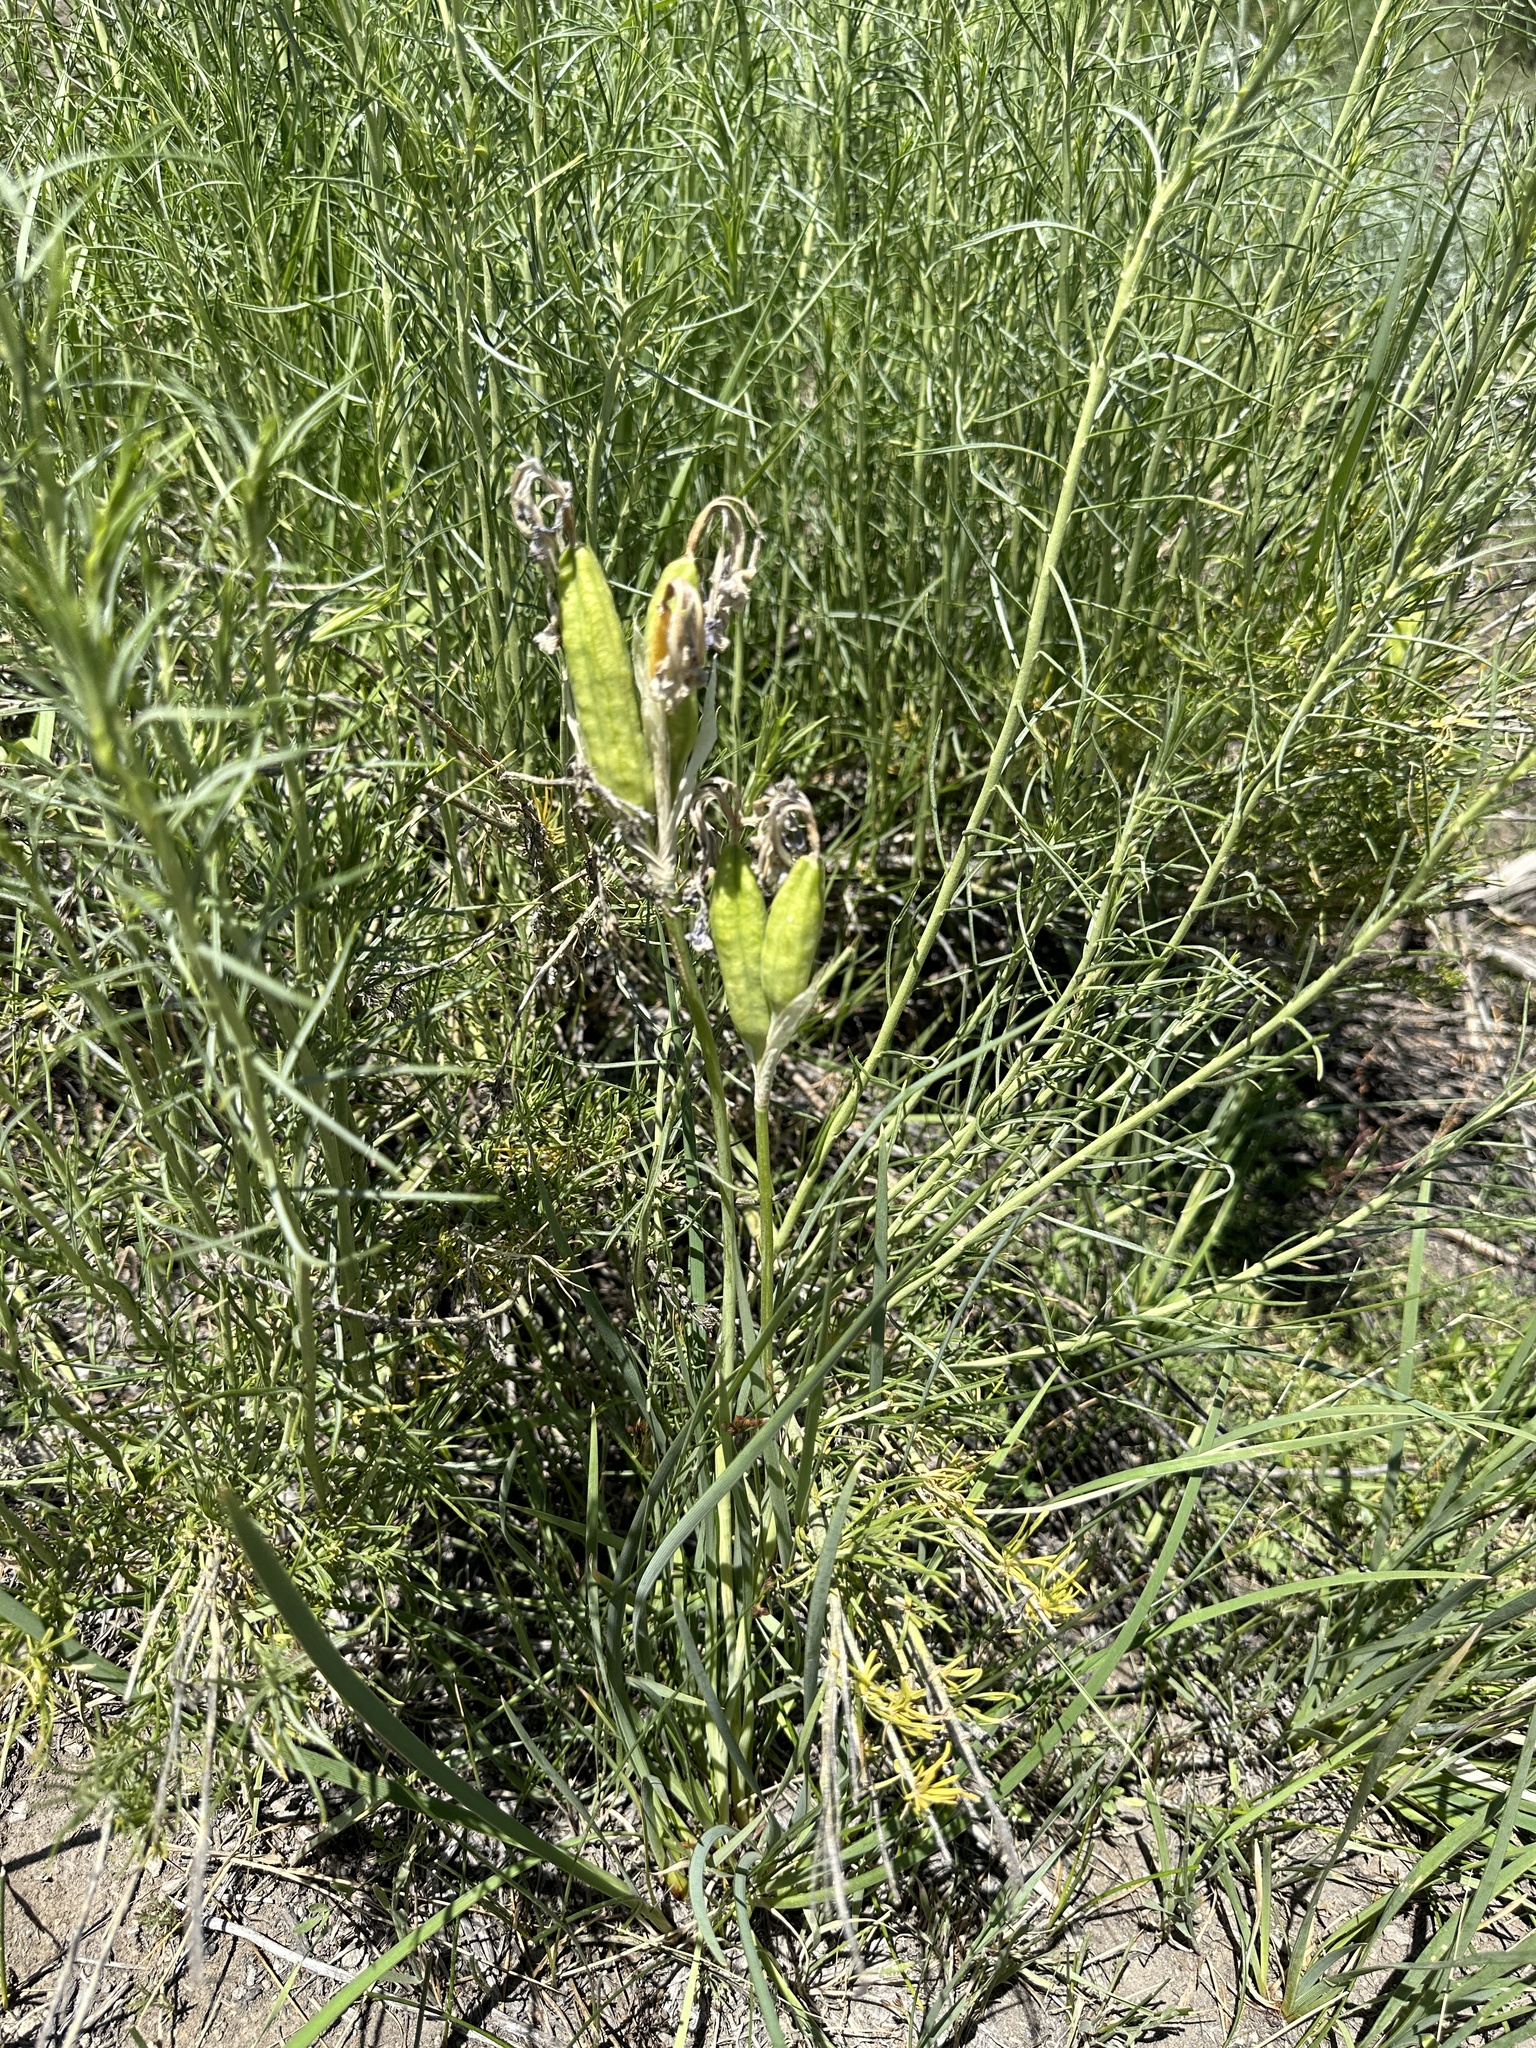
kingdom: Plantae
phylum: Tracheophyta
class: Liliopsida
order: Asparagales
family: Iridaceae
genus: Iris
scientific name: Iris missouriensis
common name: Rocky mountain iris
